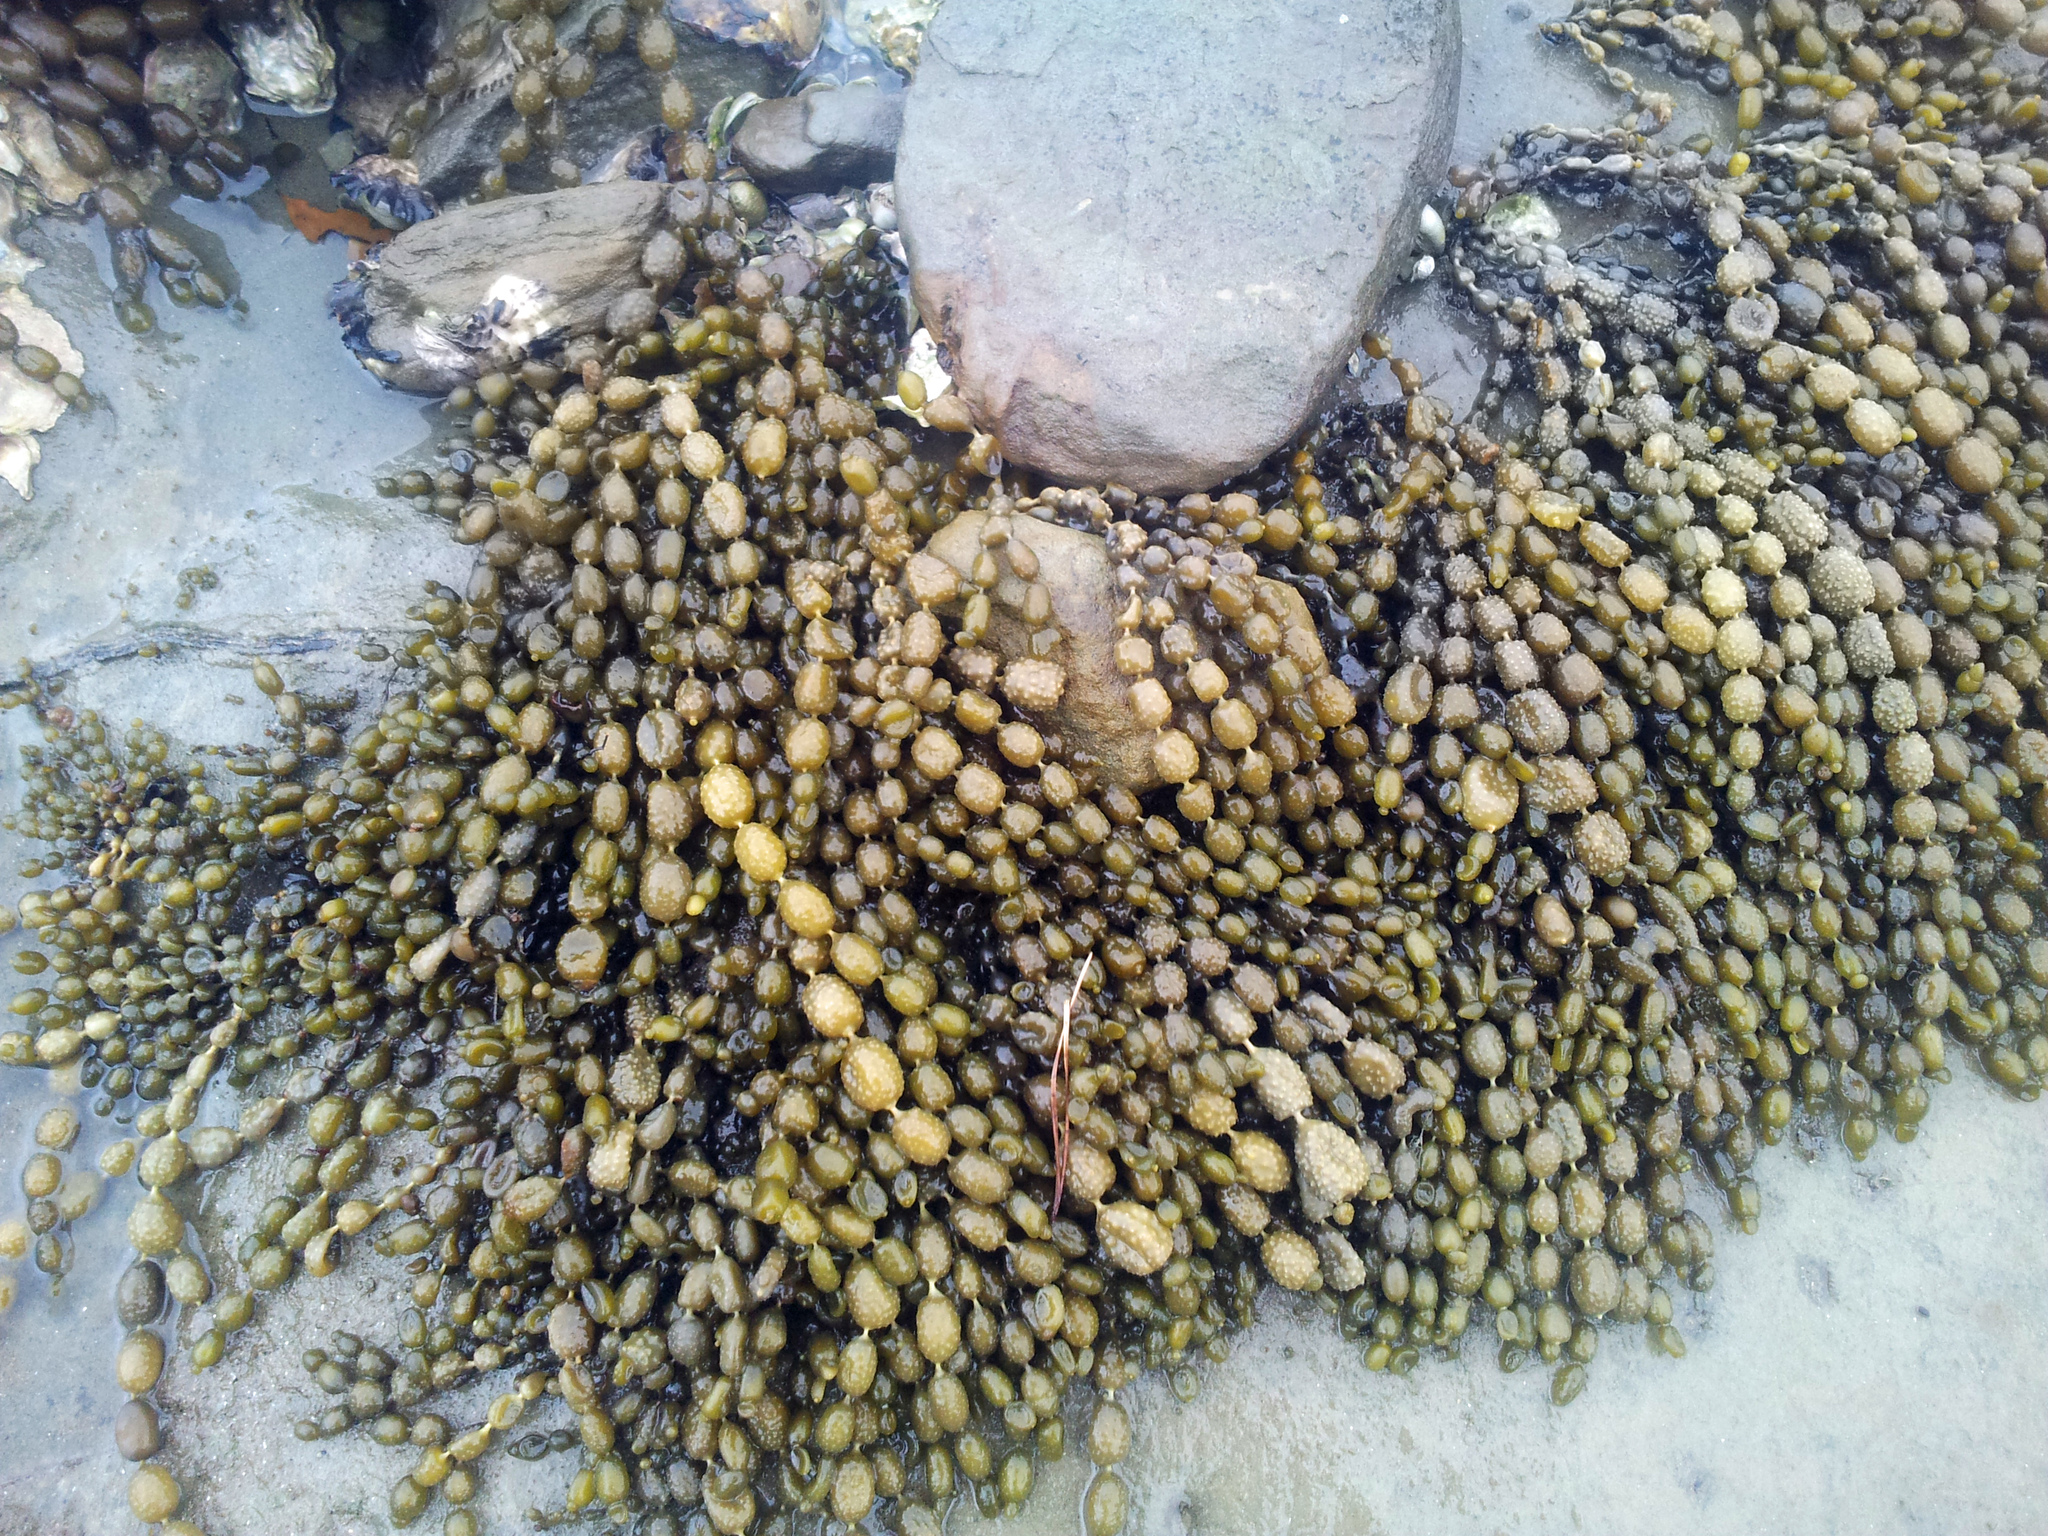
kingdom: Chromista
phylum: Ochrophyta
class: Phaeophyceae
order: Fucales
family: Hormosiraceae
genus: Hormosira
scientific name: Hormosira banksii
